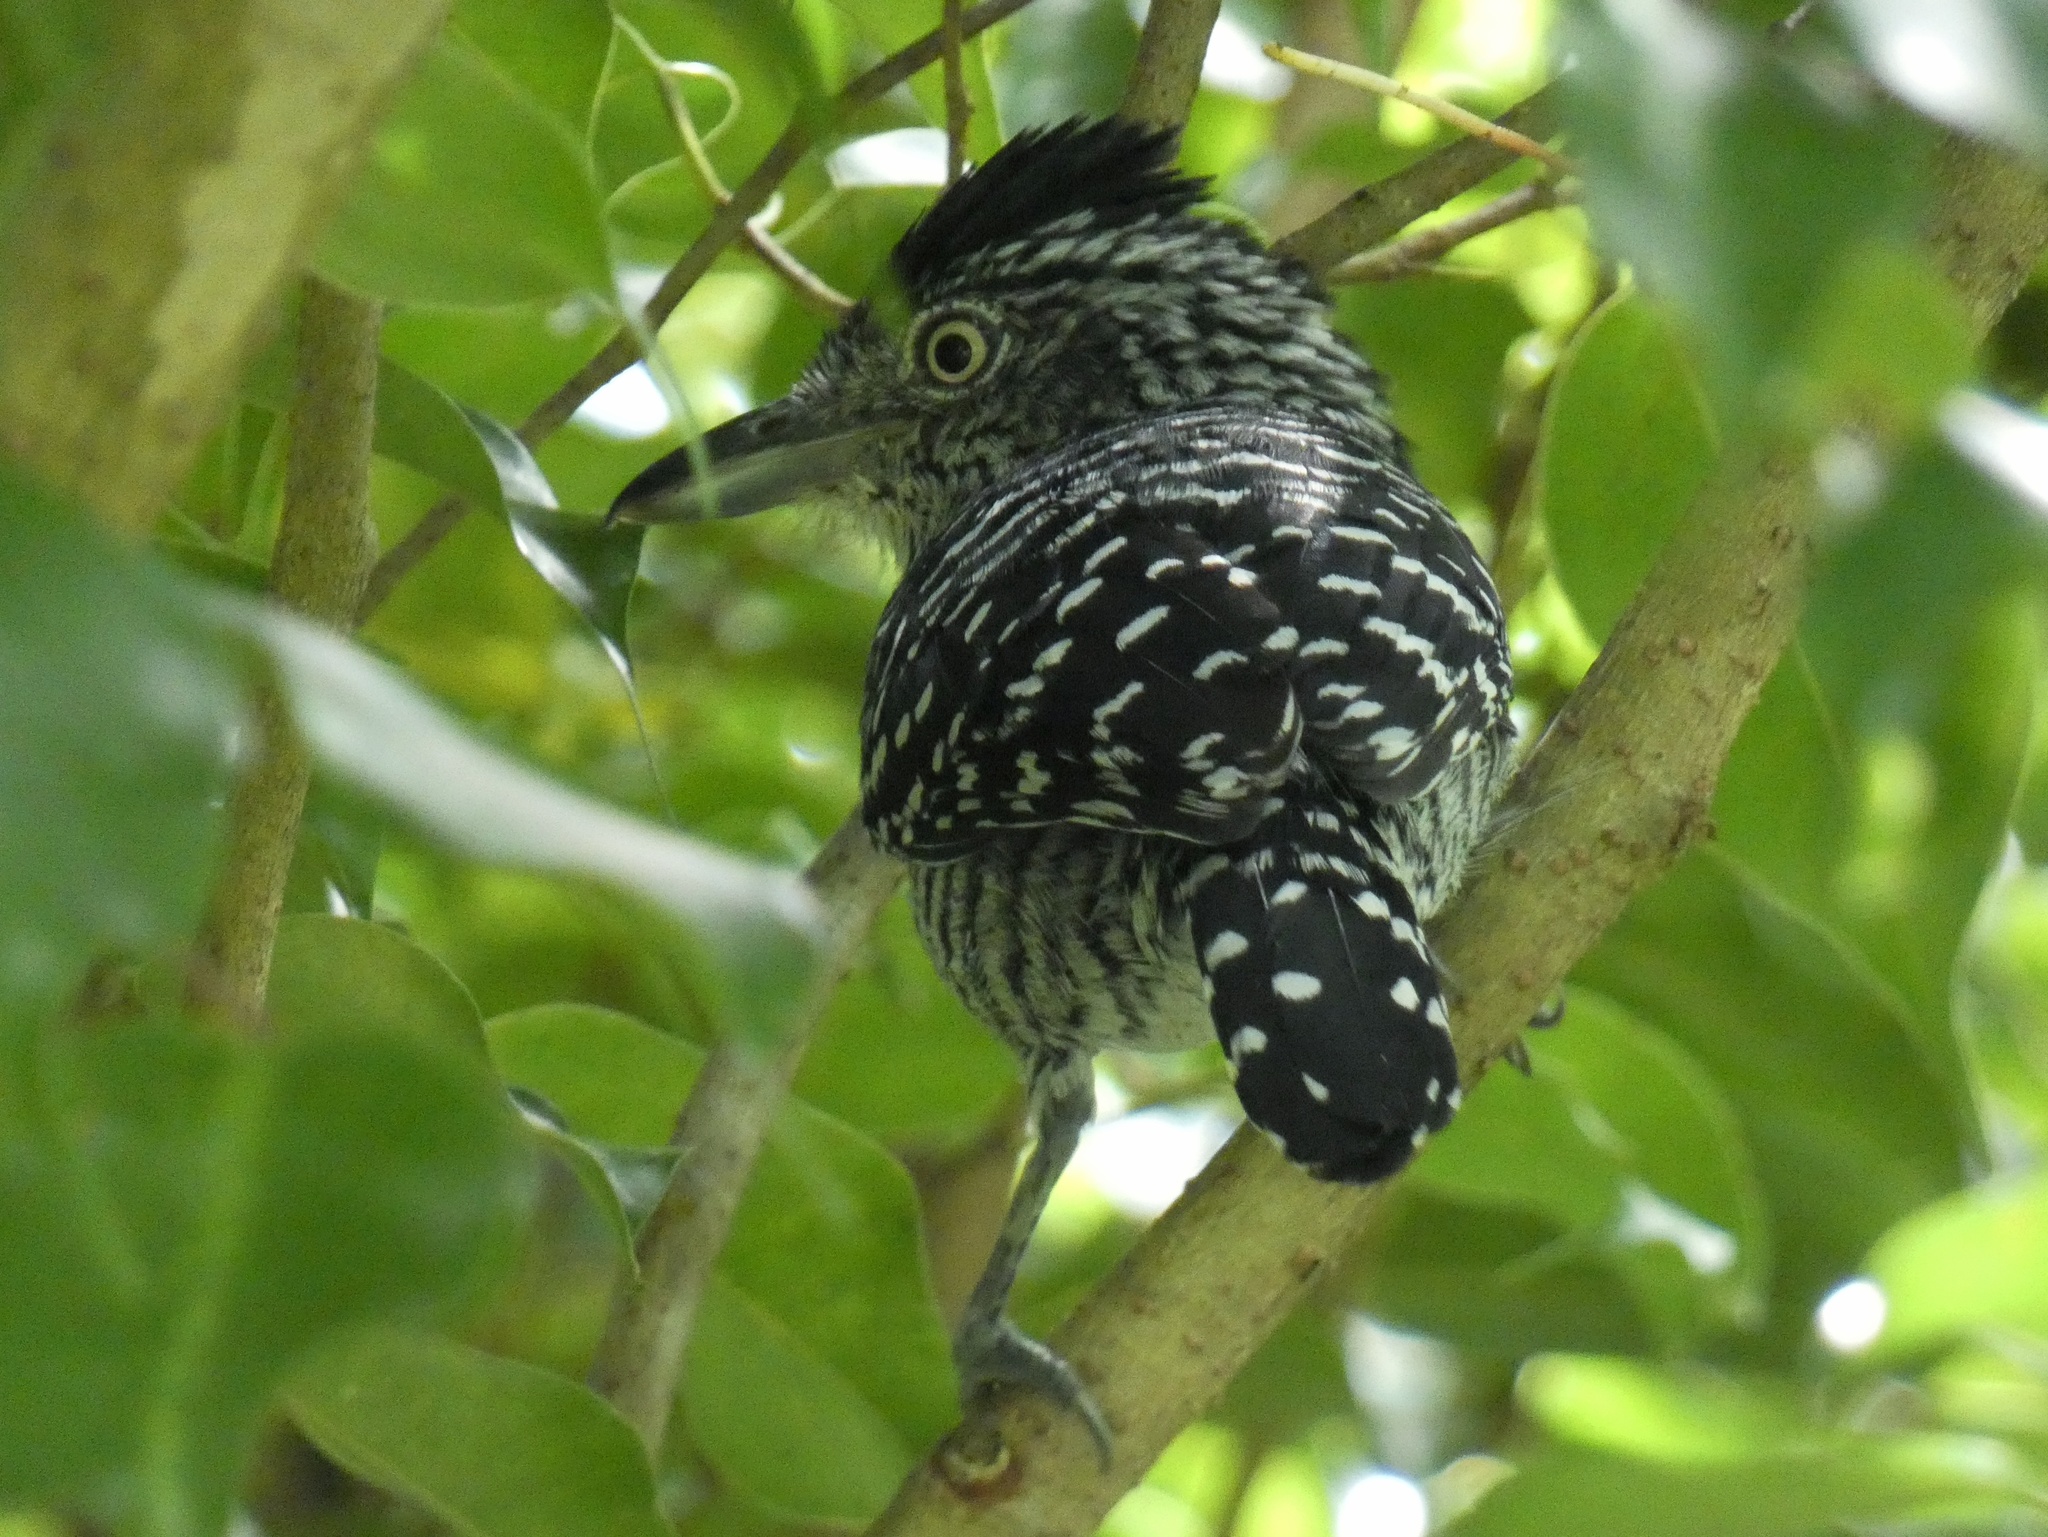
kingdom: Animalia
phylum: Chordata
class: Aves
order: Passeriformes
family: Thamnophilidae
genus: Thamnophilus
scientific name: Thamnophilus doliatus
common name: Barred antshrike
